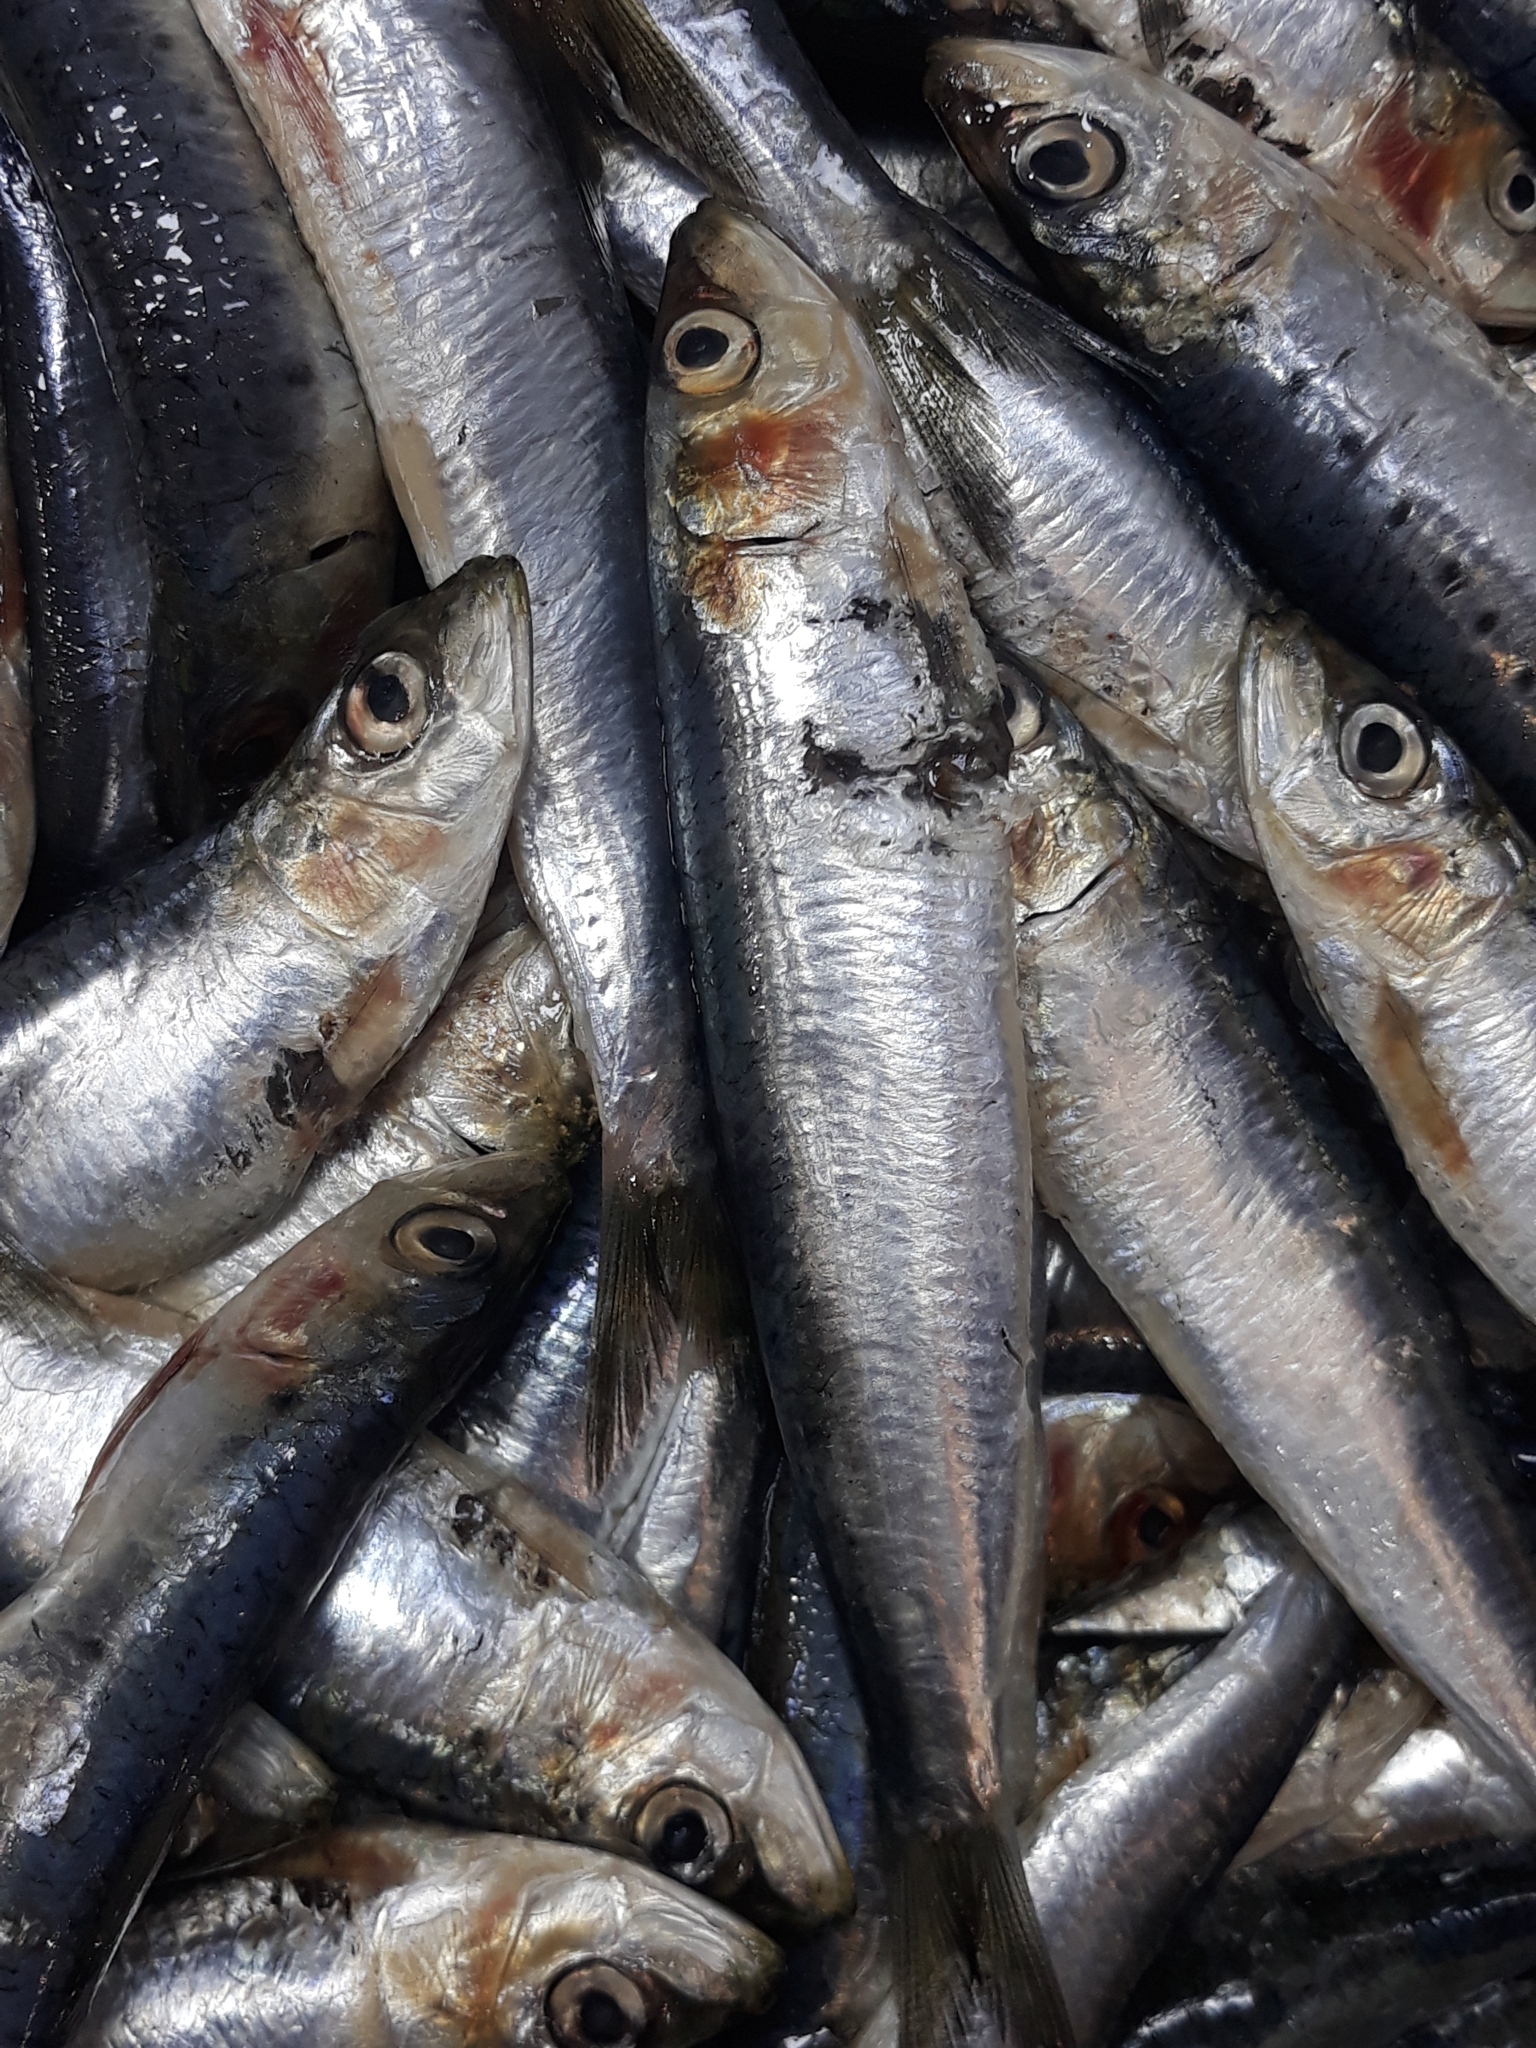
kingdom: Animalia
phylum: Chordata
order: Clupeiformes
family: Clupeidae
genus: Sardina
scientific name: Sardina pilchardus
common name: Pilchard
